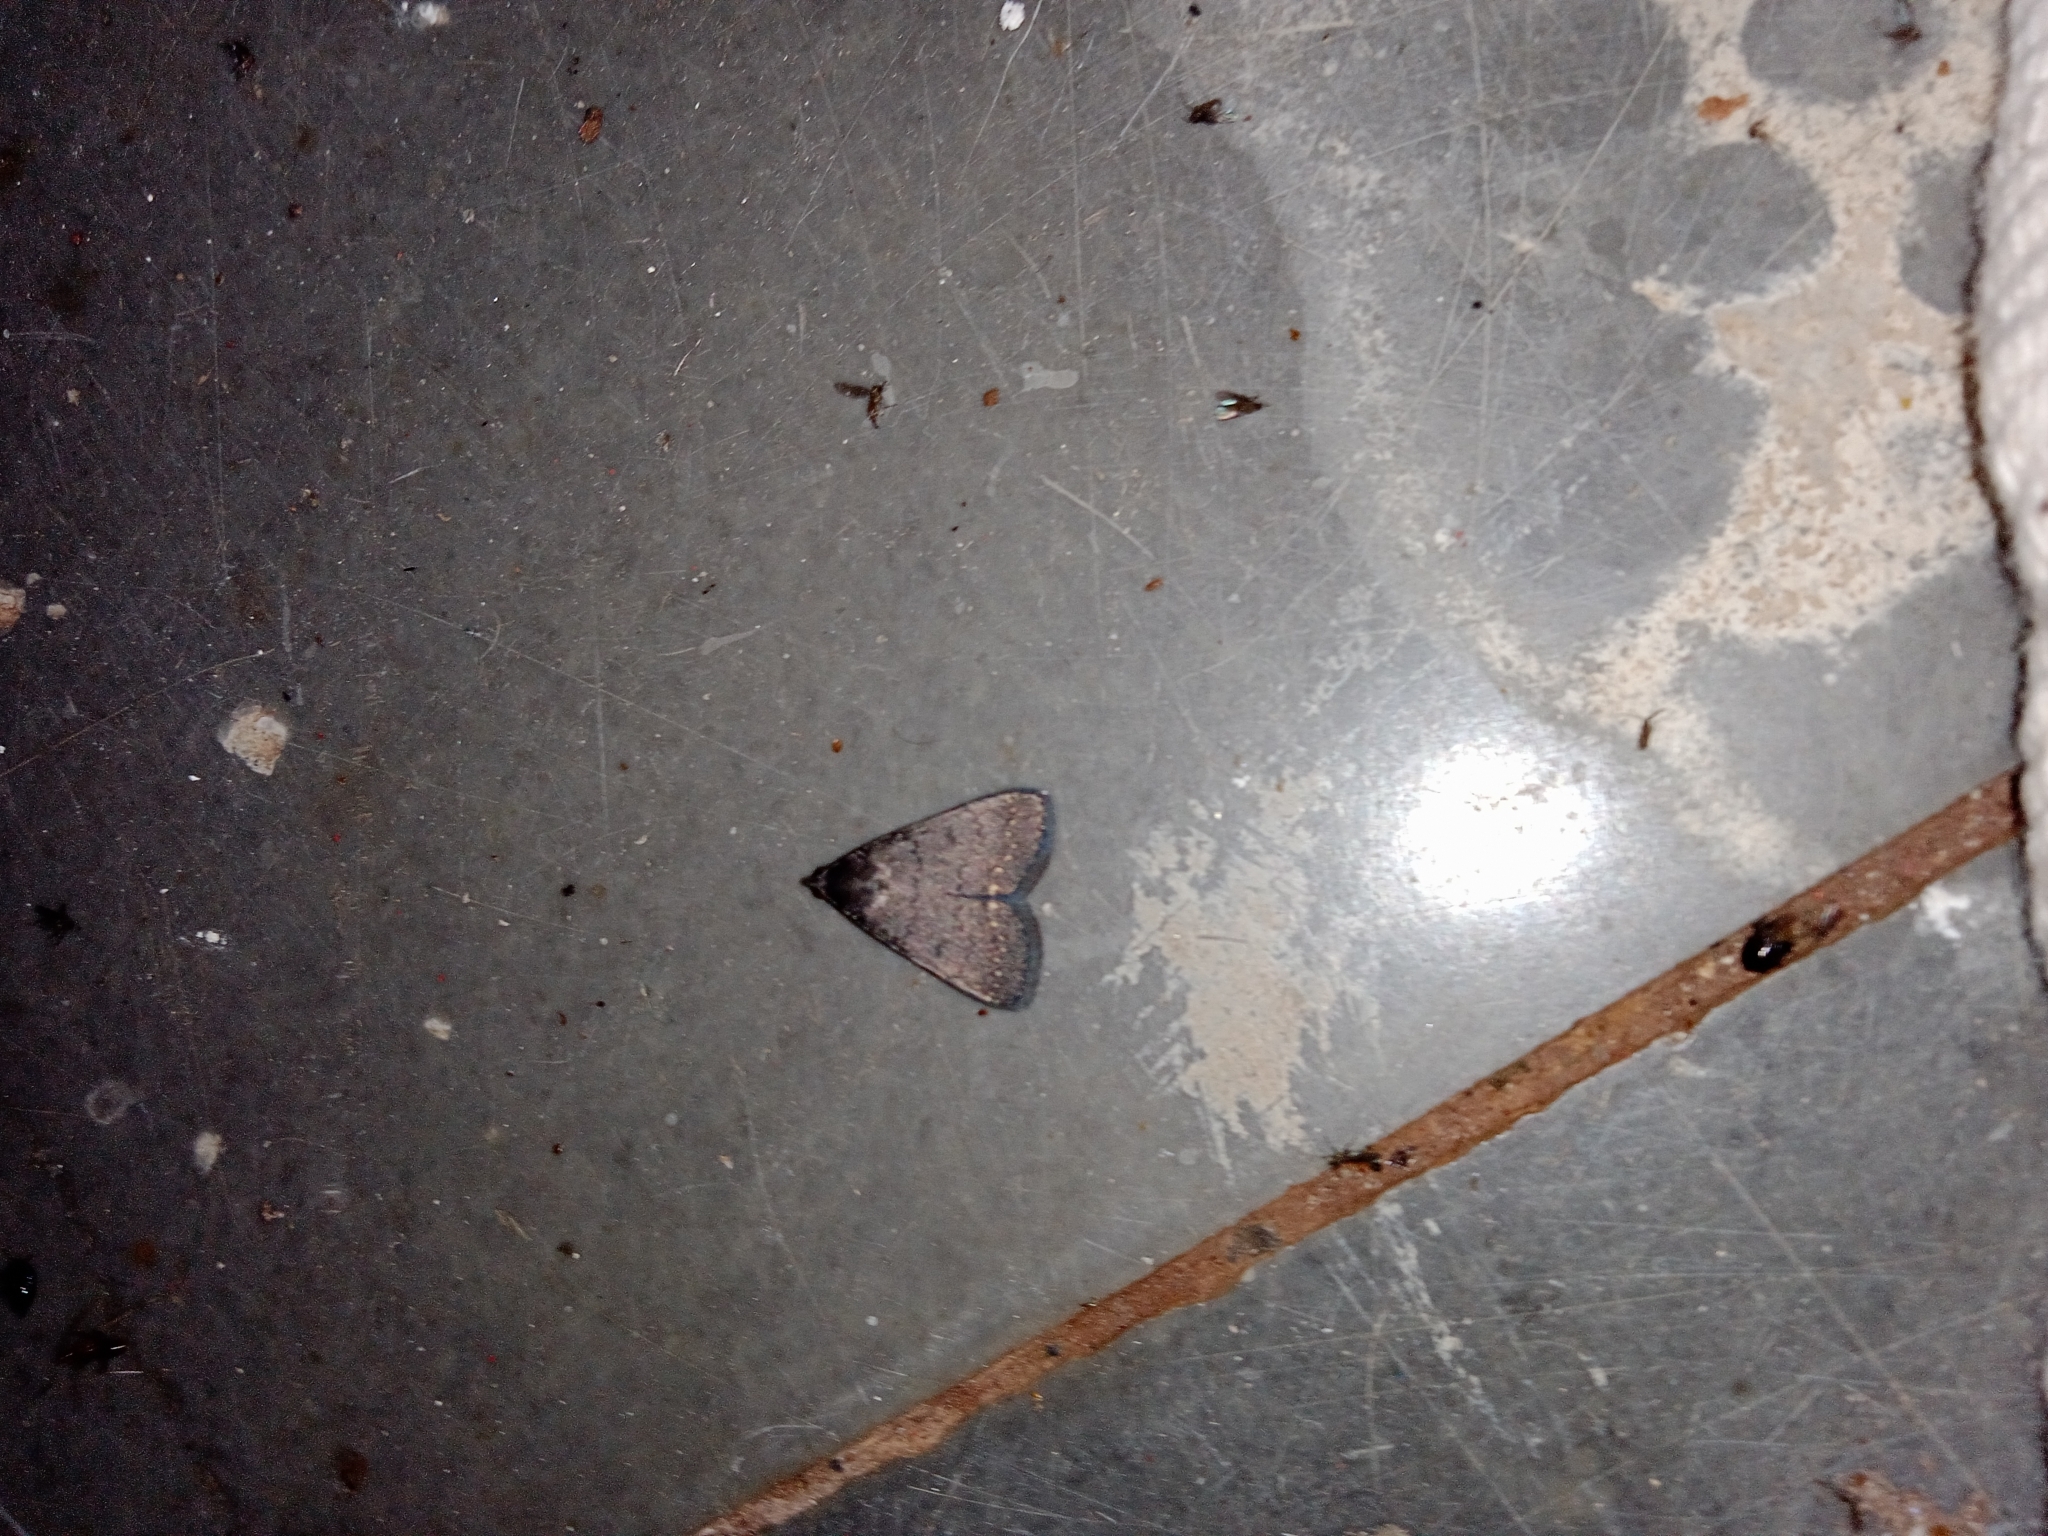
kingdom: Animalia
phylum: Arthropoda
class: Insecta
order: Lepidoptera
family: Erebidae
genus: Nodaria
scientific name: Nodaria externalis
